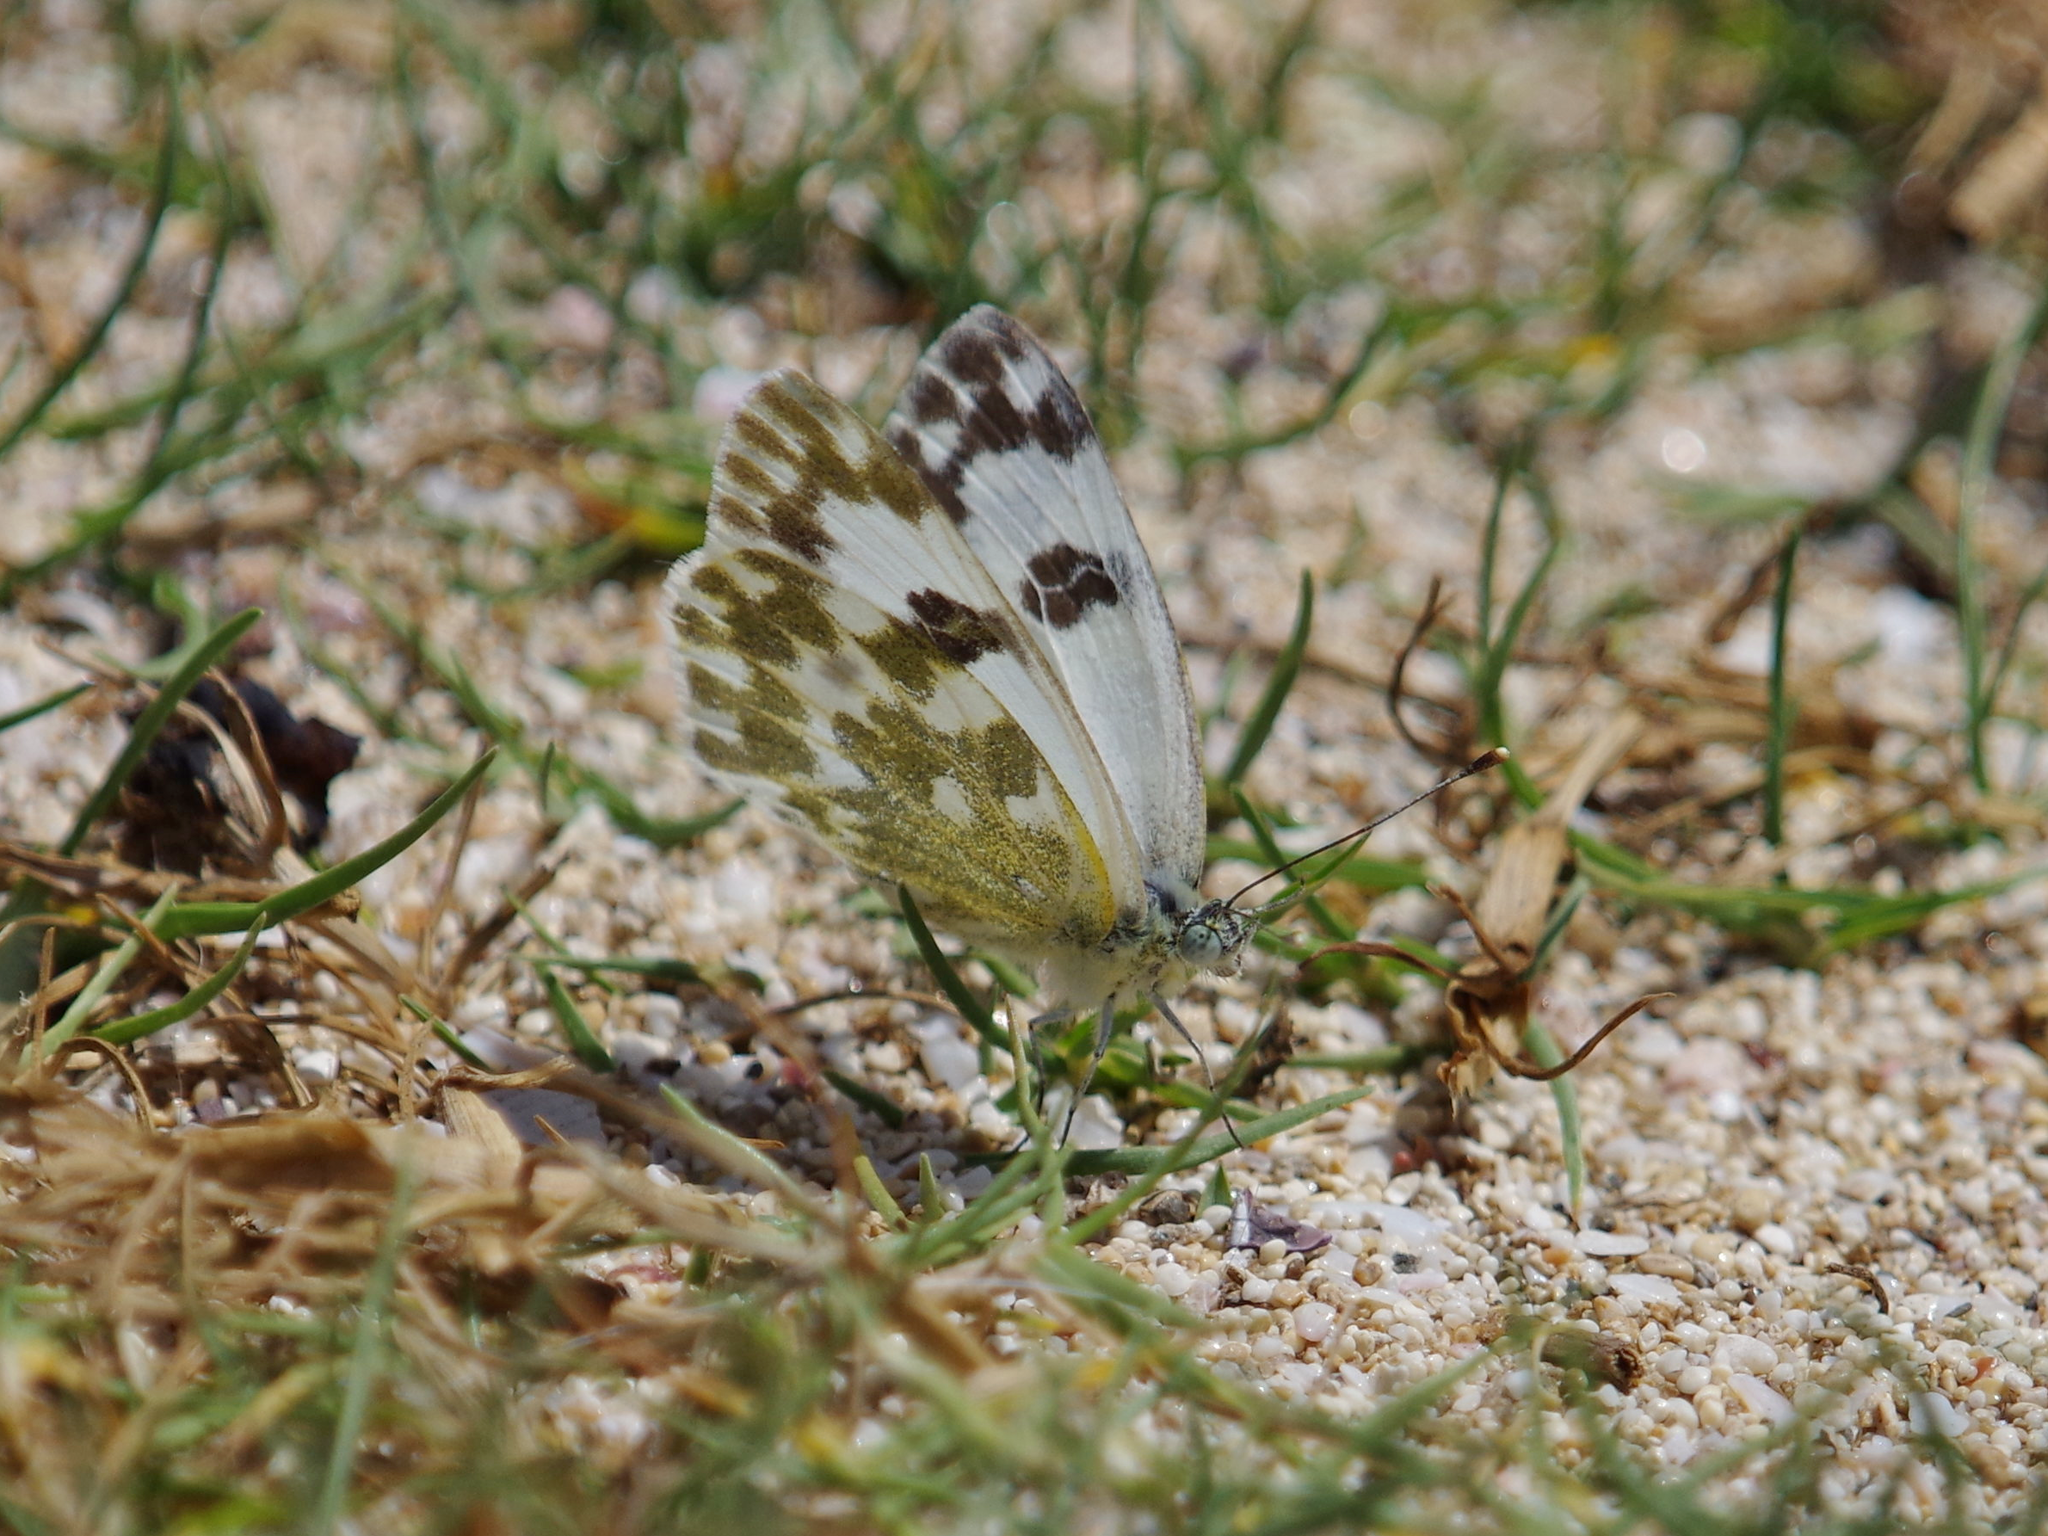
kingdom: Animalia
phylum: Arthropoda
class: Insecta
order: Lepidoptera
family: Pieridae
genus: Pontia
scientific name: Pontia daplidice
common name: Bath white
